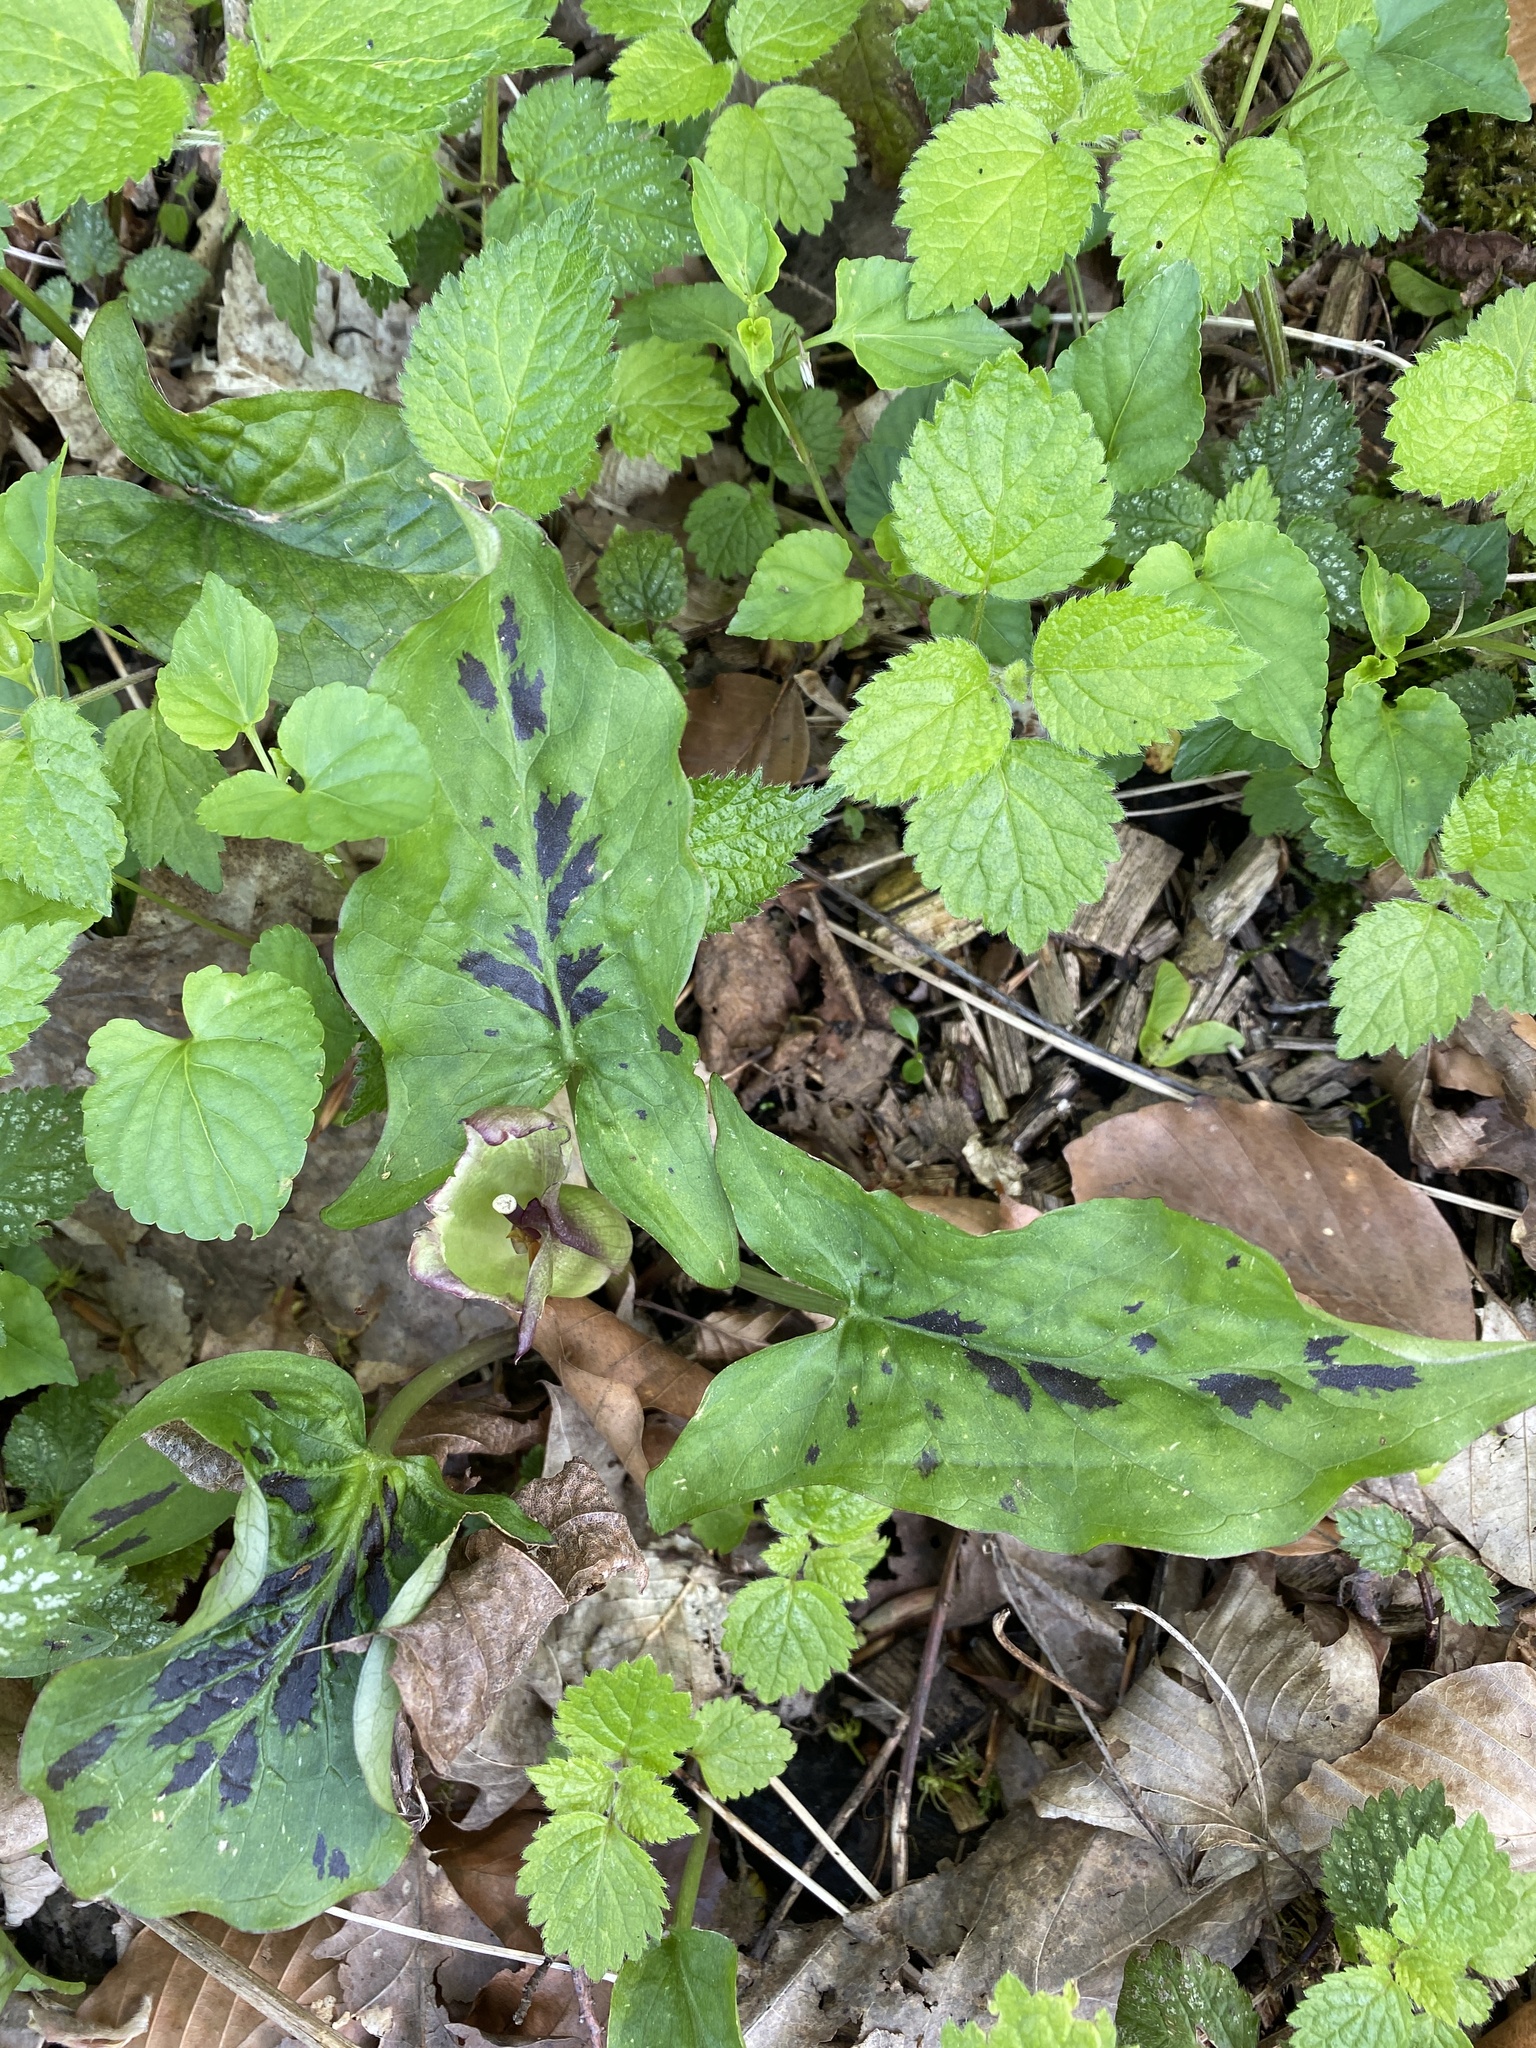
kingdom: Plantae
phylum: Tracheophyta
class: Liliopsida
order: Alismatales
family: Araceae
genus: Arum
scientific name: Arum maculatum
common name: Lords-and-ladies
